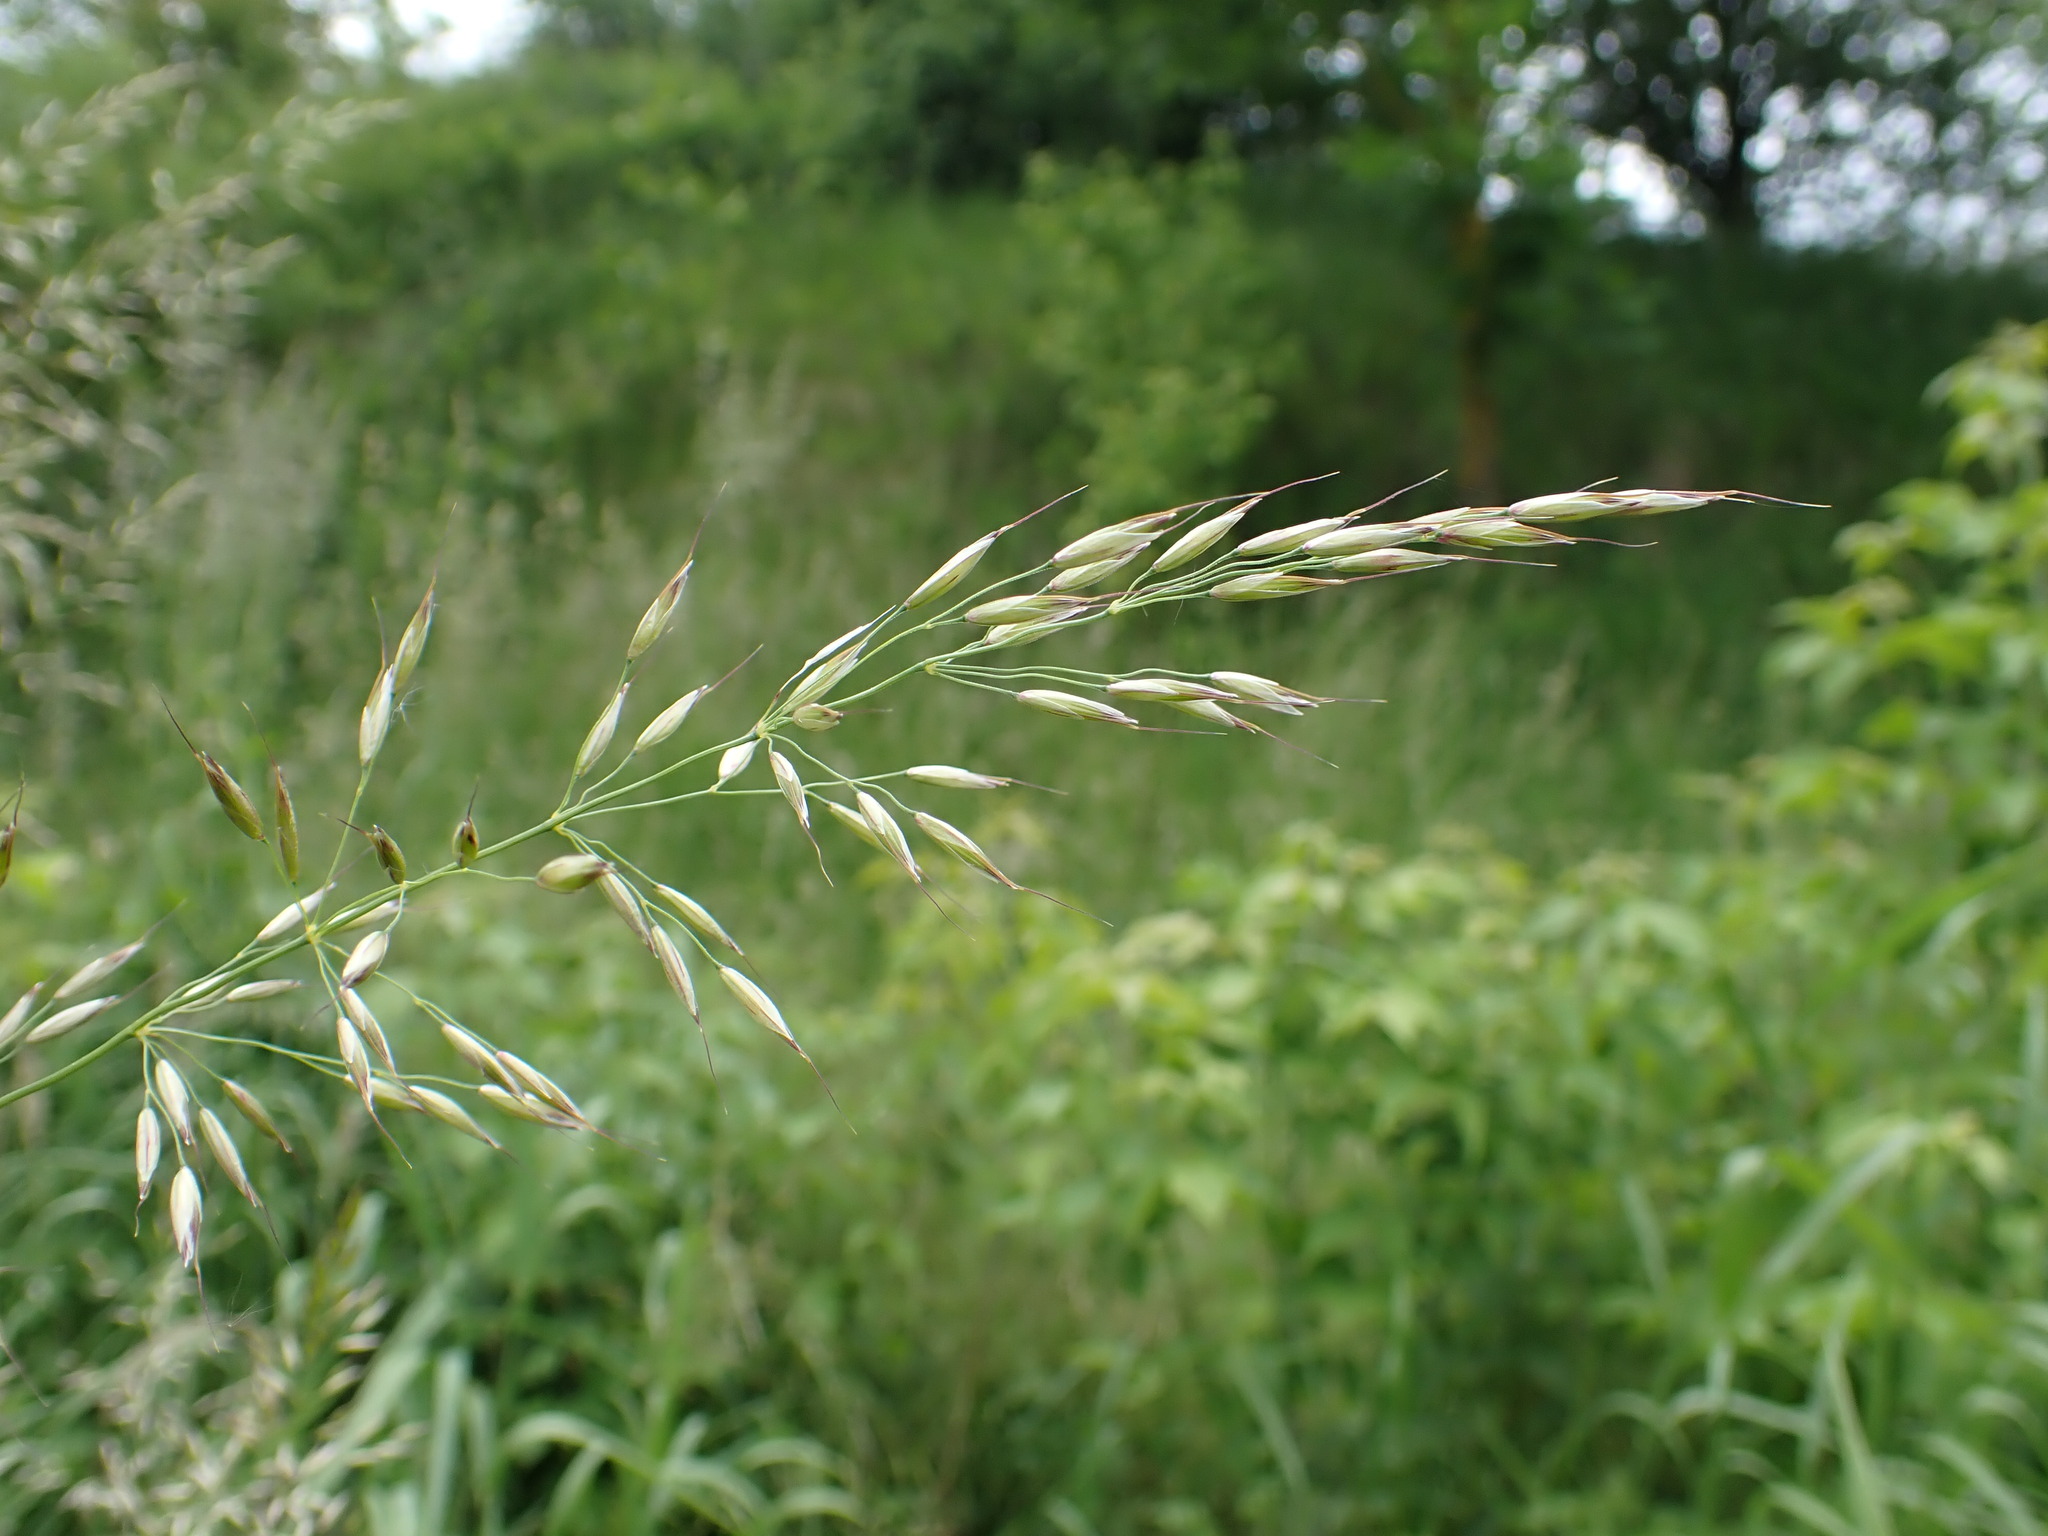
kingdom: Plantae
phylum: Tracheophyta
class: Liliopsida
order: Poales
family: Poaceae
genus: Arrhenatherum
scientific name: Arrhenatherum elatius
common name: Tall oatgrass
